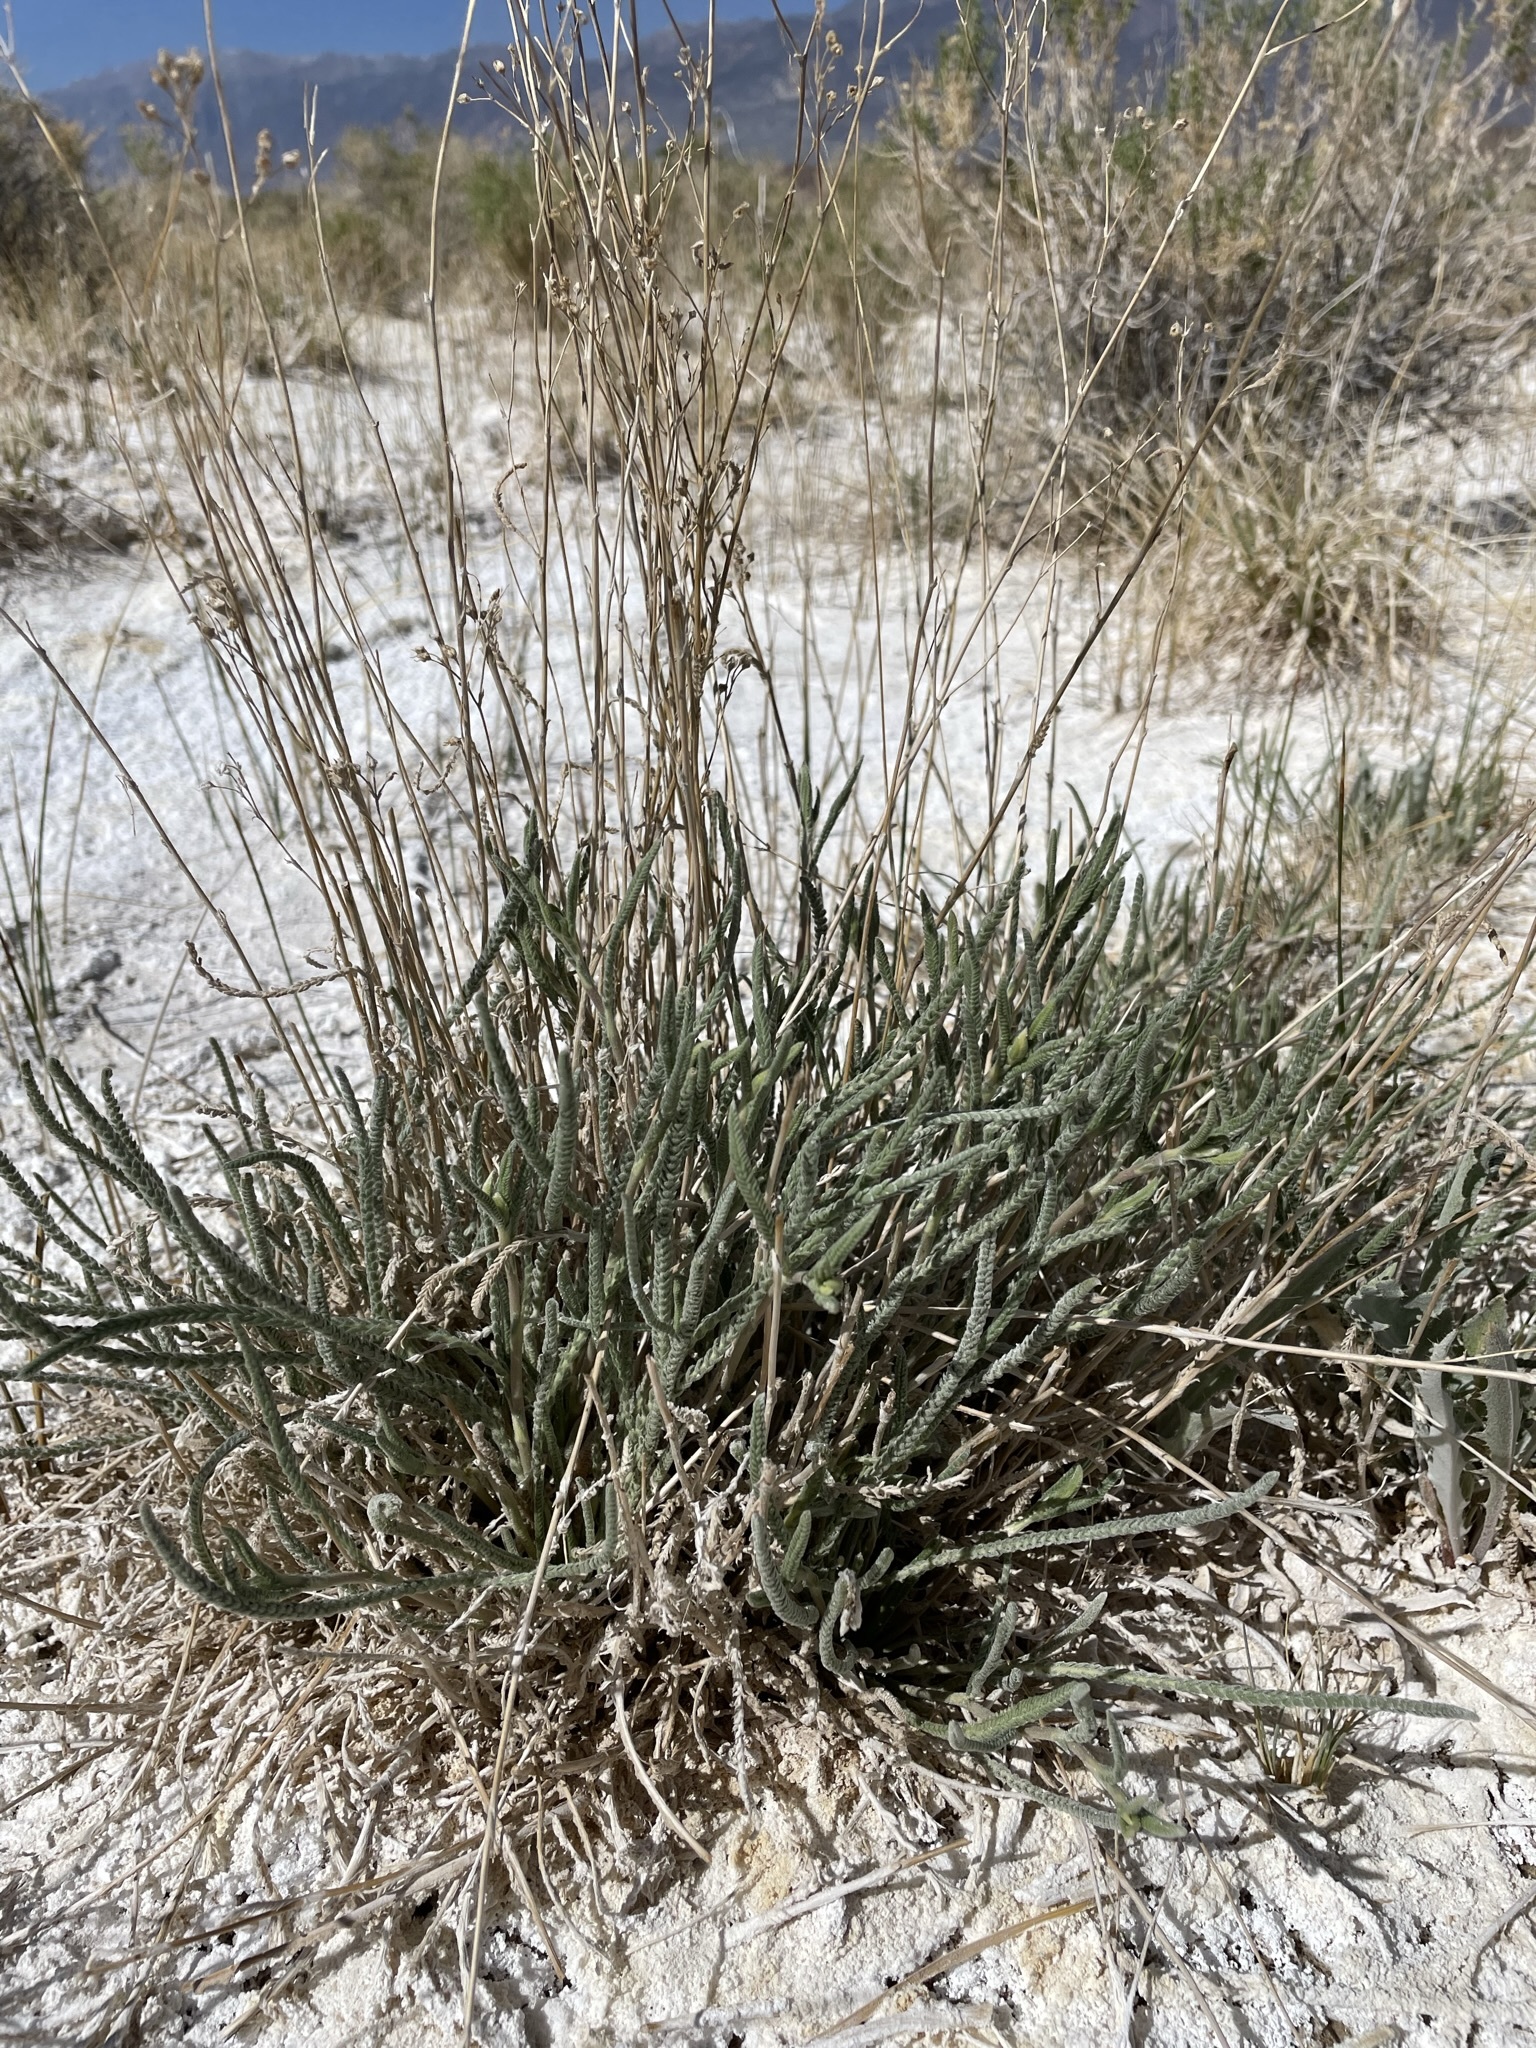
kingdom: Plantae
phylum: Tracheophyta
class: Magnoliopsida
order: Rosales
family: Rosaceae
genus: Potentilla
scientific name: Potentilla kingii
